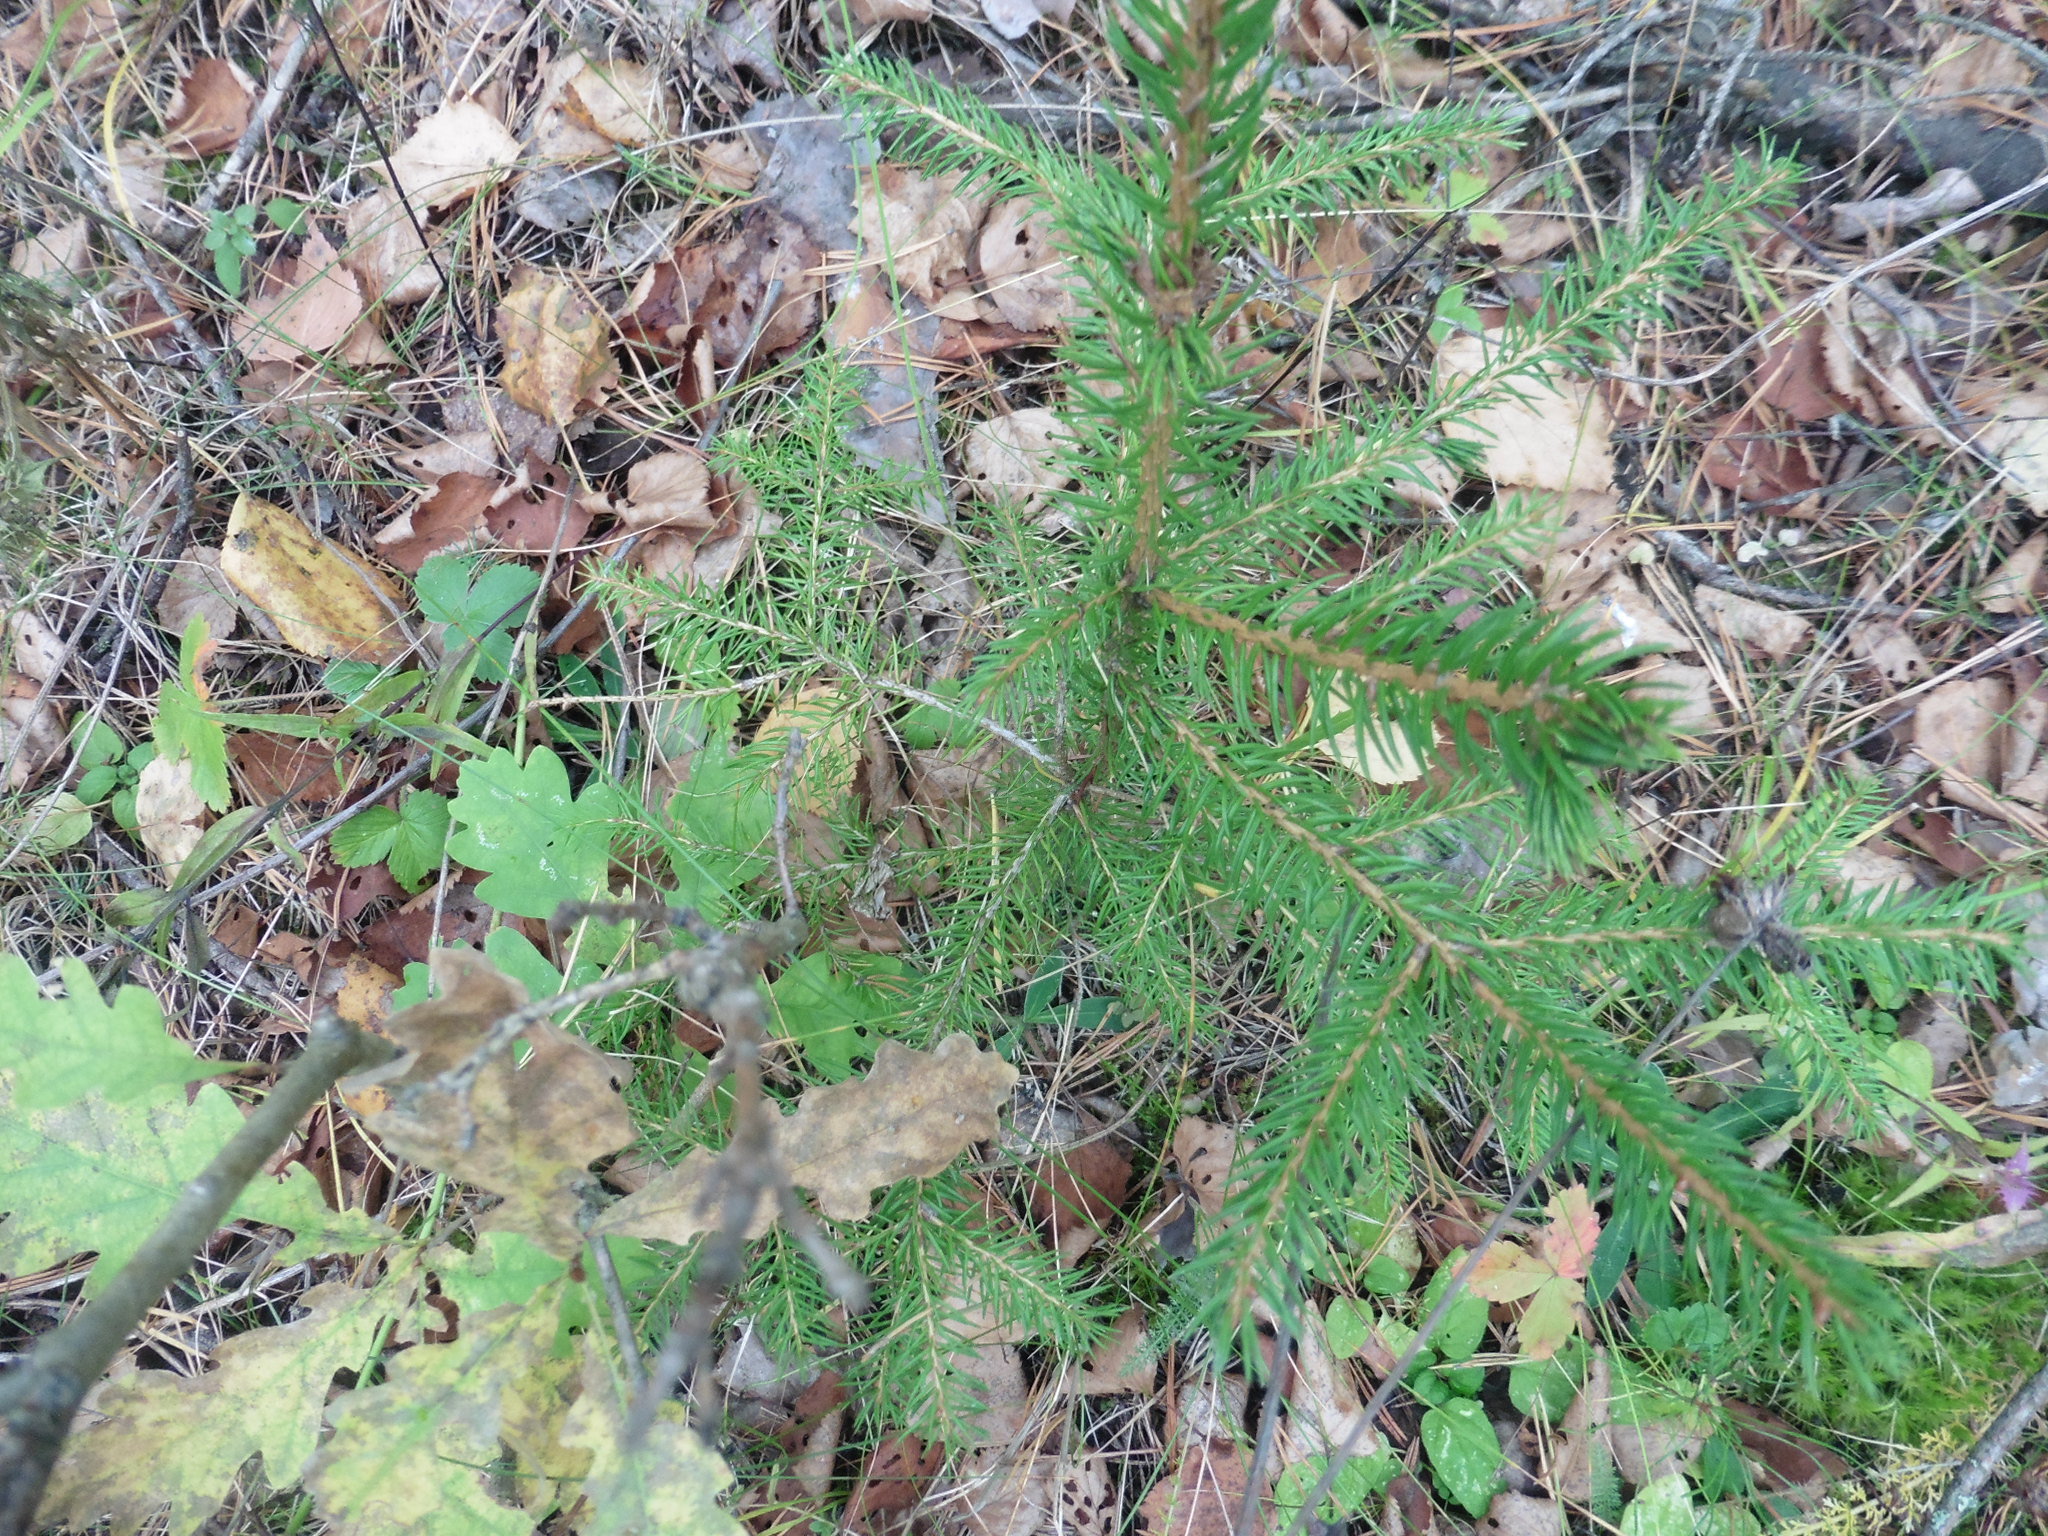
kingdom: Plantae
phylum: Tracheophyta
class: Pinopsida
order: Pinales
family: Pinaceae
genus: Picea
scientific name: Picea abies
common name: Norway spruce
